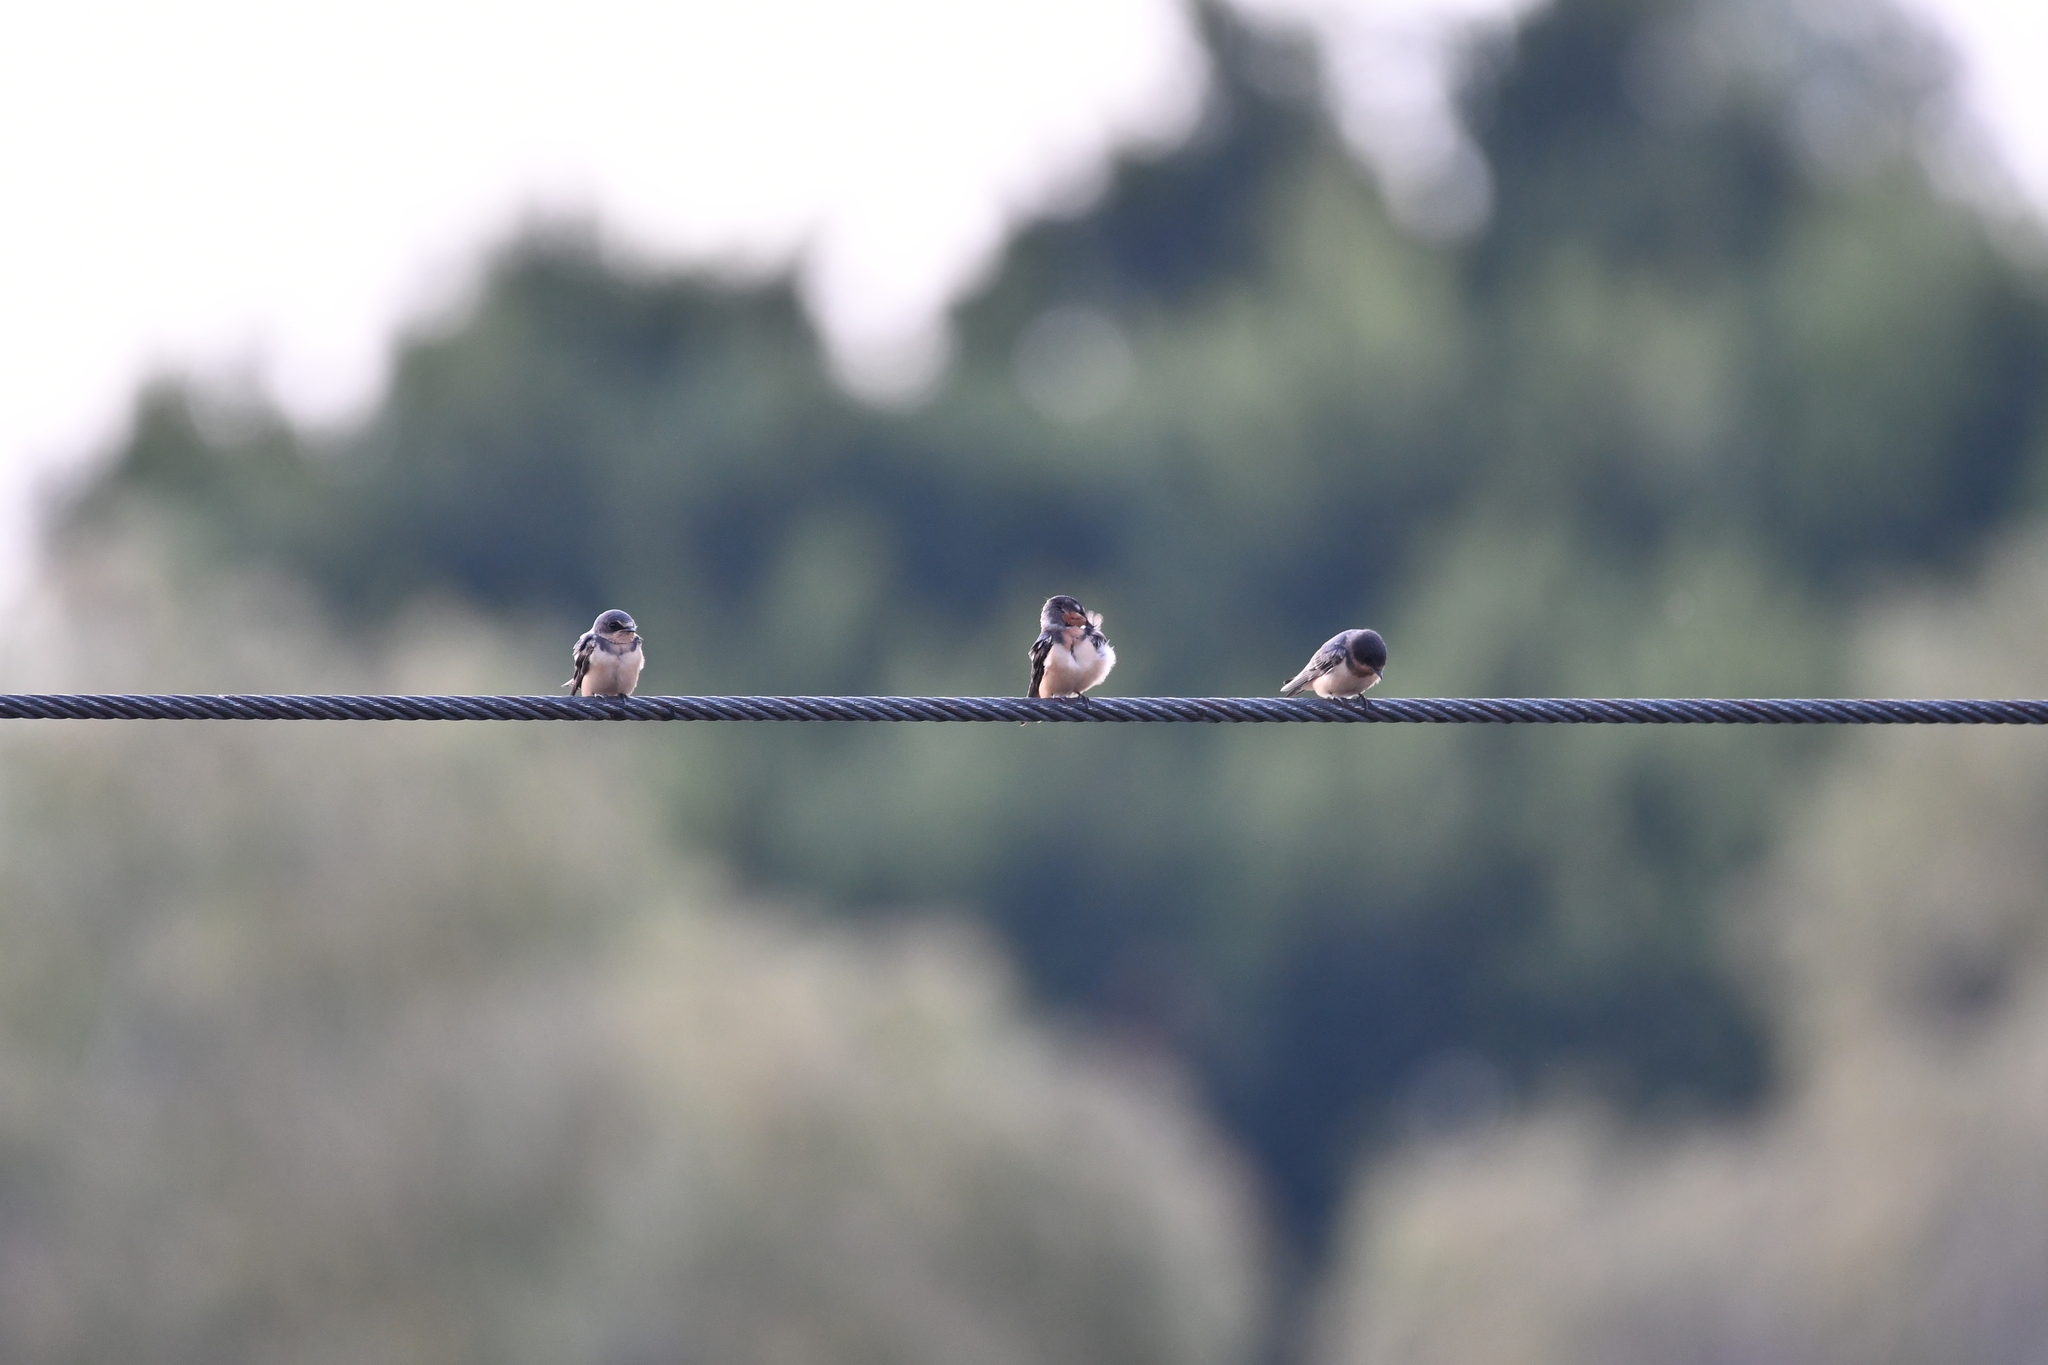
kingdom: Animalia
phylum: Chordata
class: Aves
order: Passeriformes
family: Hirundinidae
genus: Hirundo
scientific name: Hirundo rustica
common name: Barn swallow
